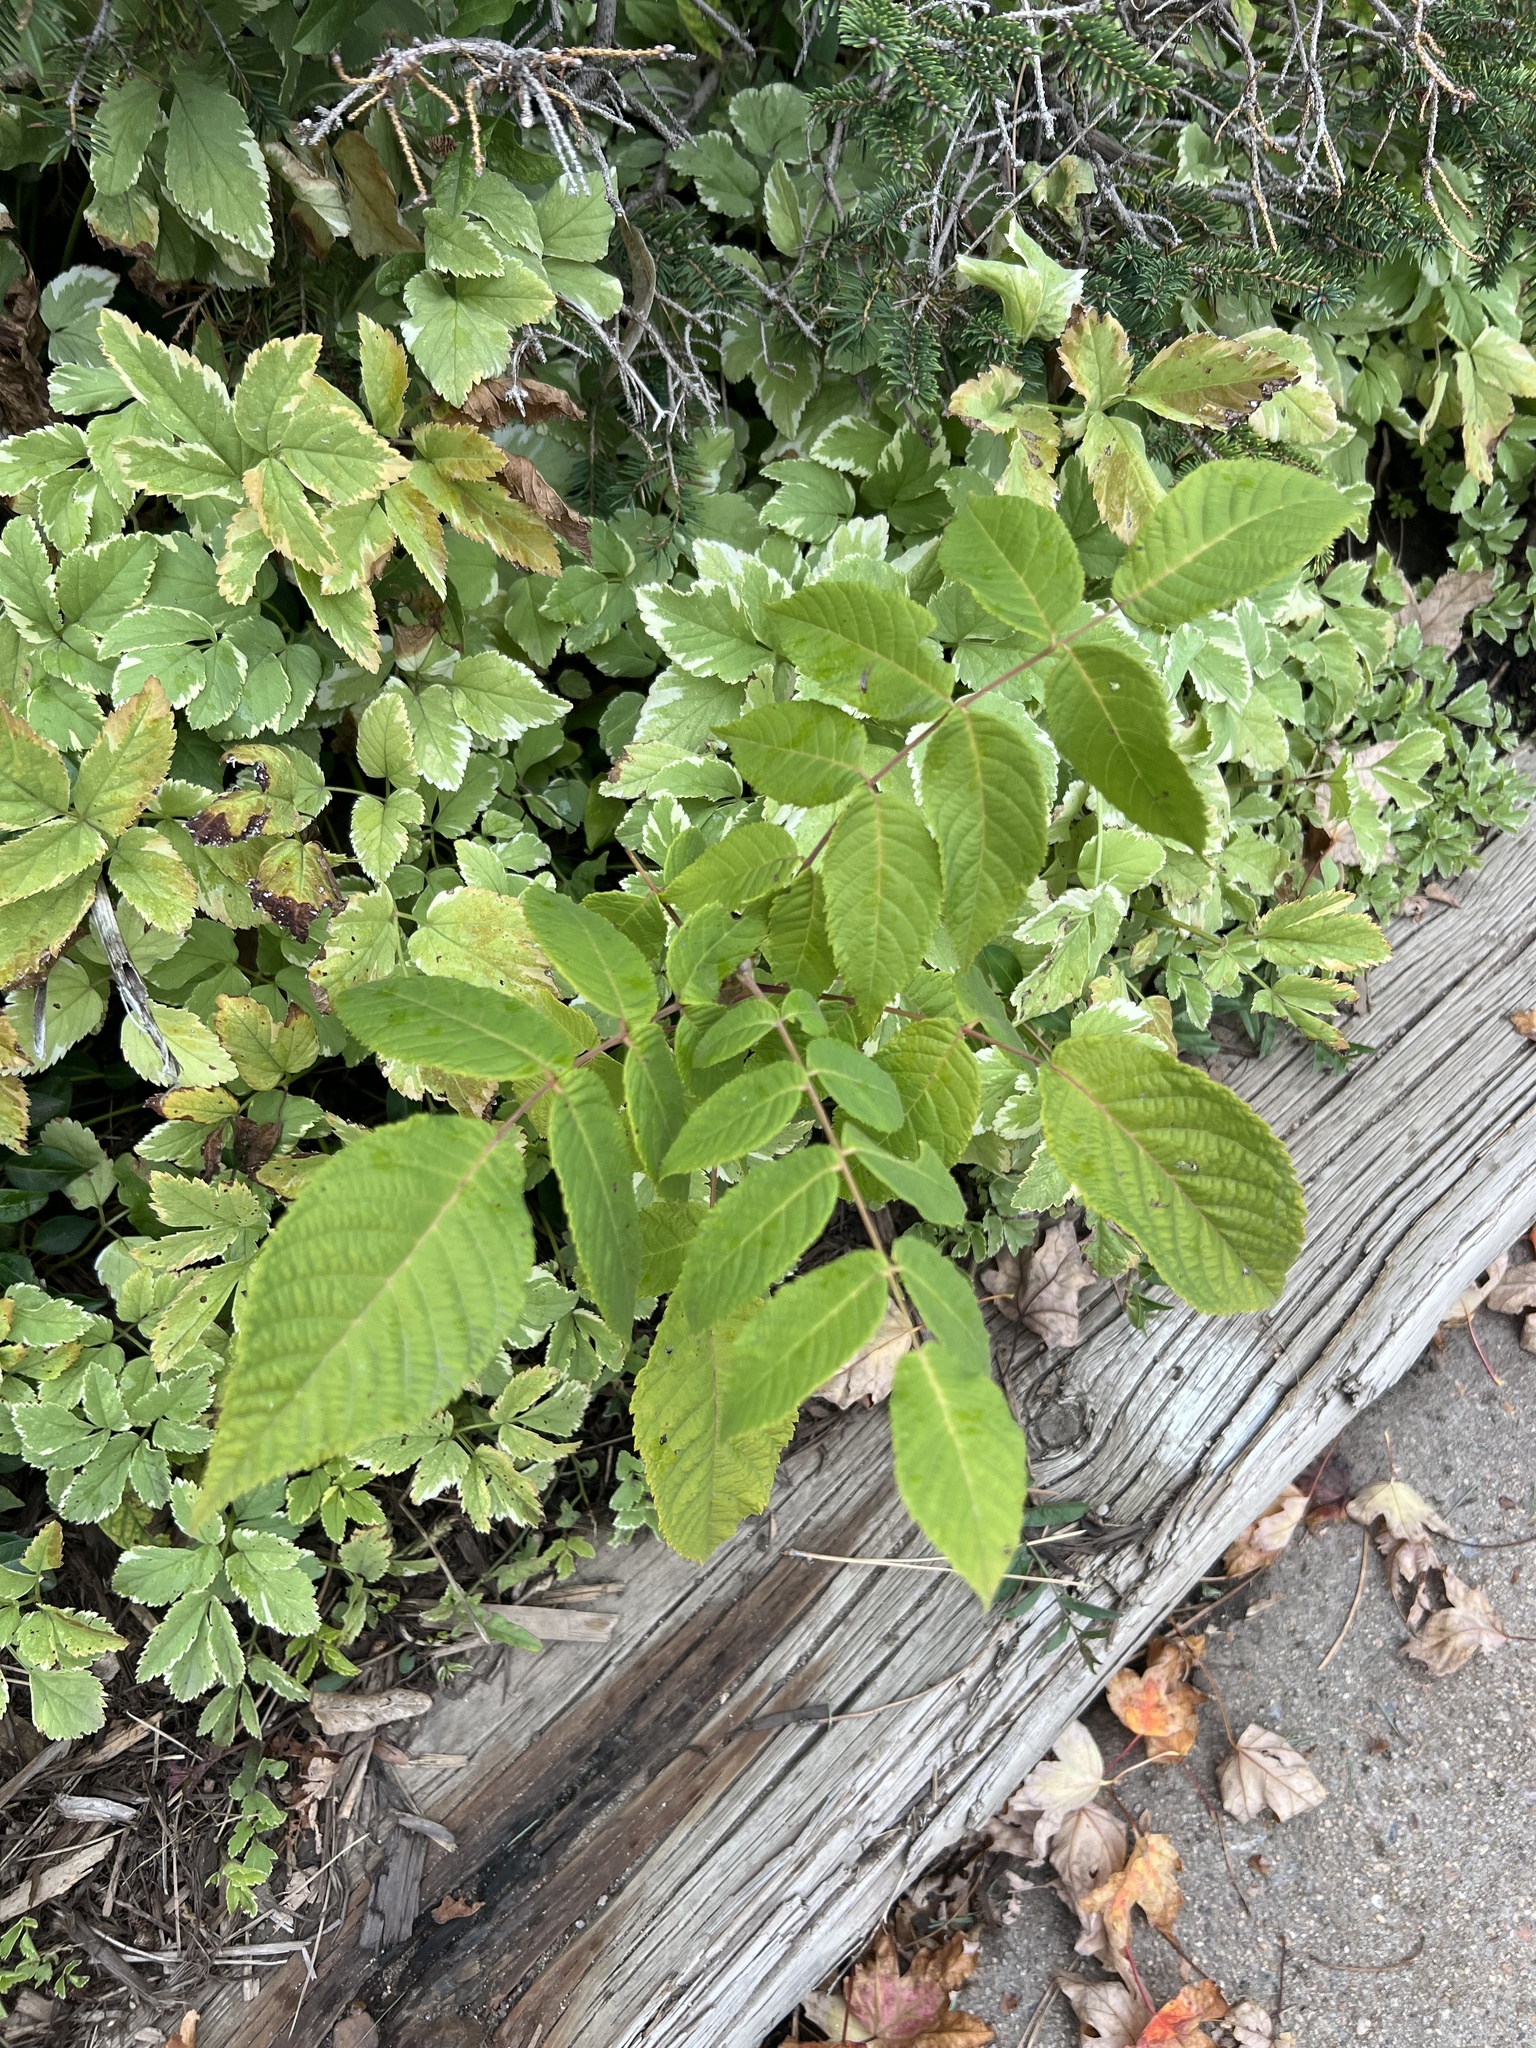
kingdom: Plantae
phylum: Tracheophyta
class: Magnoliopsida
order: Rosales
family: Ulmaceae
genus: Ulmus
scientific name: Ulmus pumila
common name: Siberian elm
